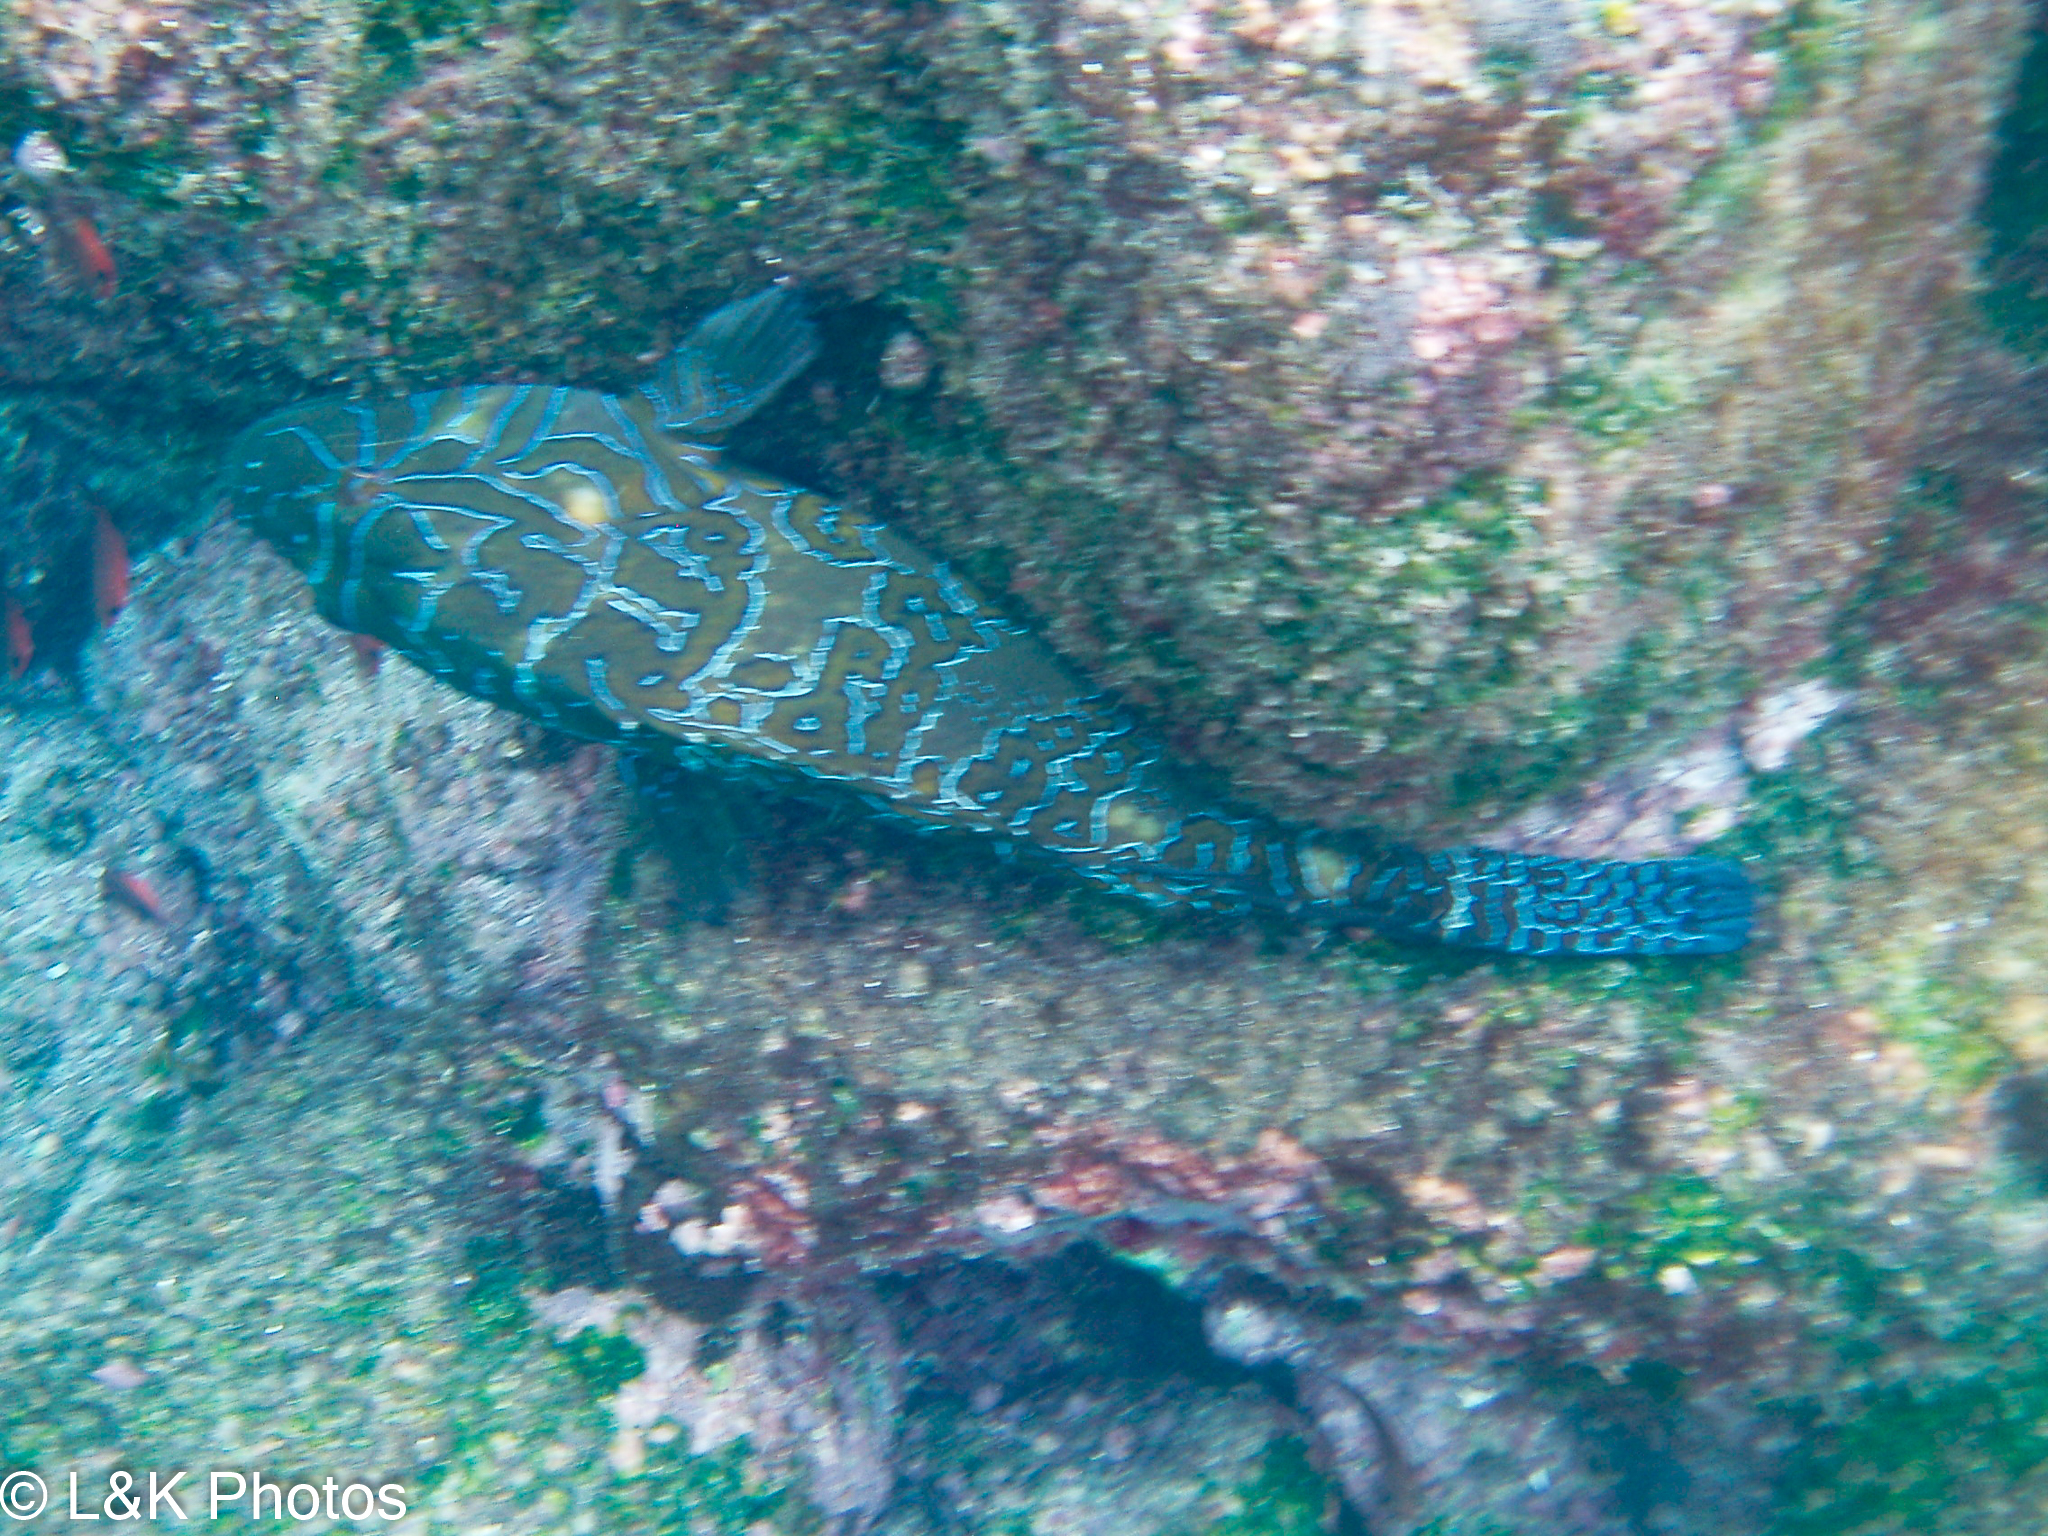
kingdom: Animalia
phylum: Chordata
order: Perciformes
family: Cirrhitidae
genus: Cirrhitus
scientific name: Cirrhitus rivulatus
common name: Giant hawkfish
